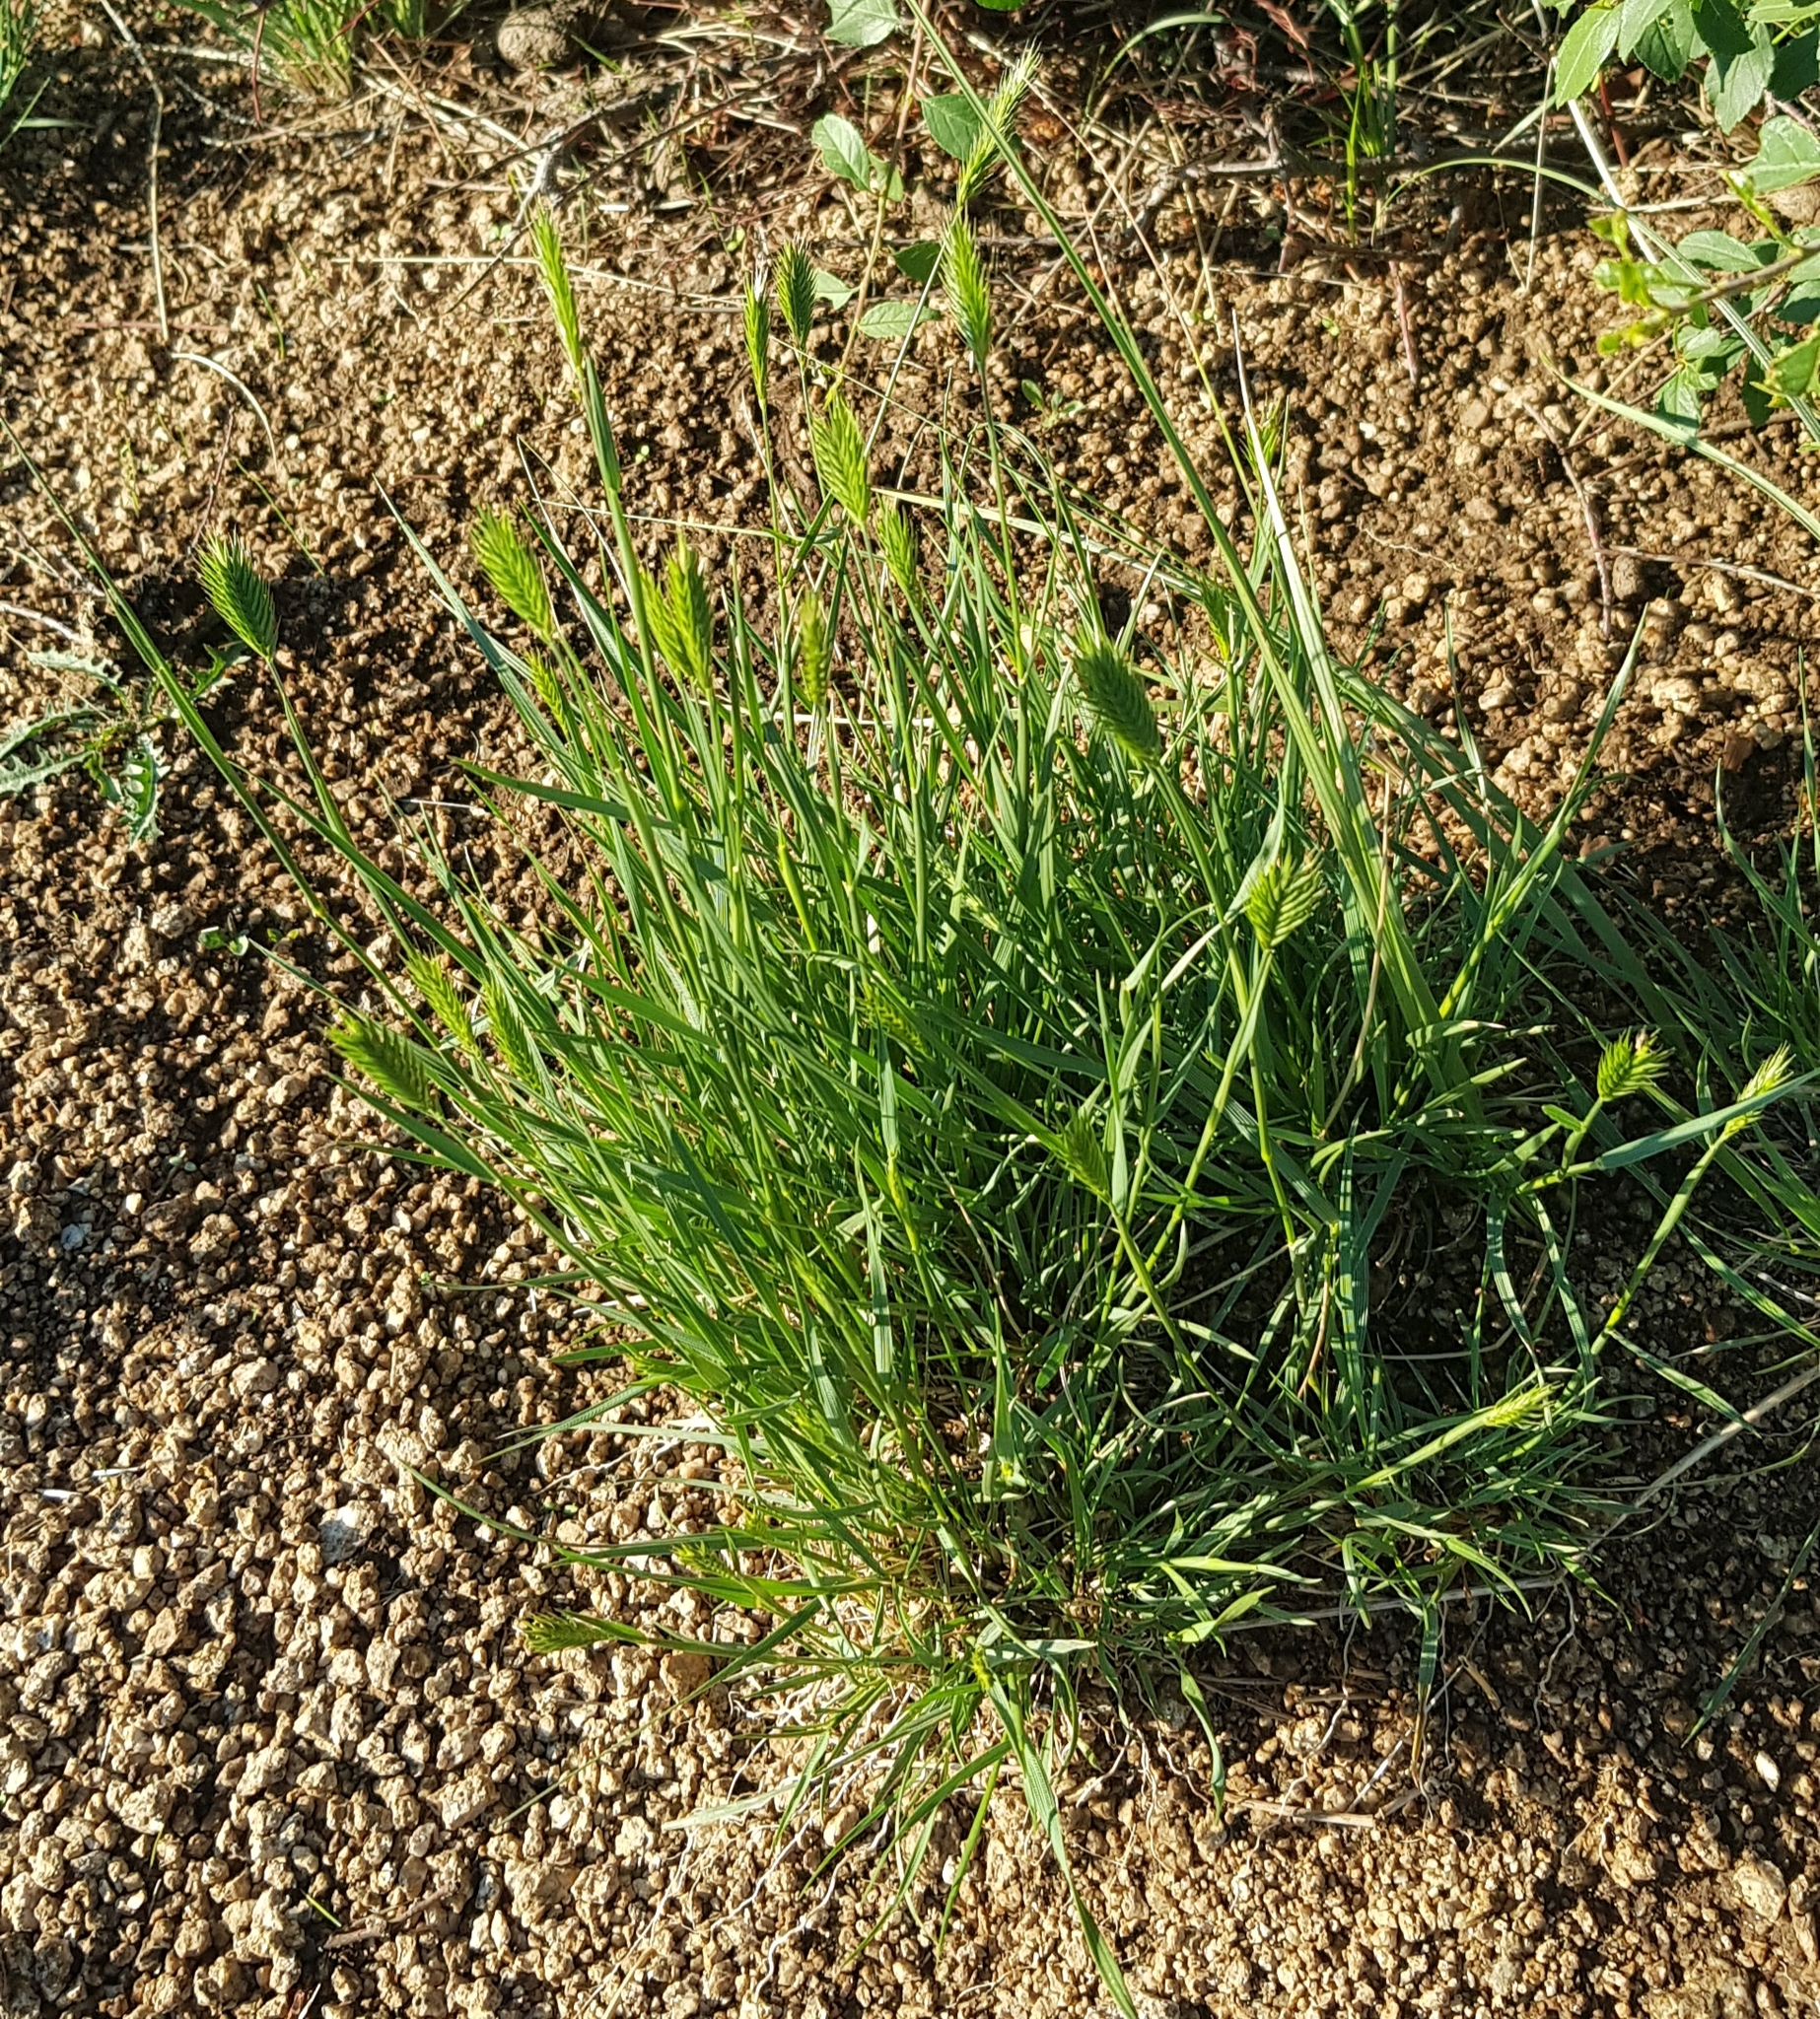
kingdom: Plantae
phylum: Tracheophyta
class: Liliopsida
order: Poales
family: Poaceae
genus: Agropyron
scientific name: Agropyron cristatum
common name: Crested wheatgrass
